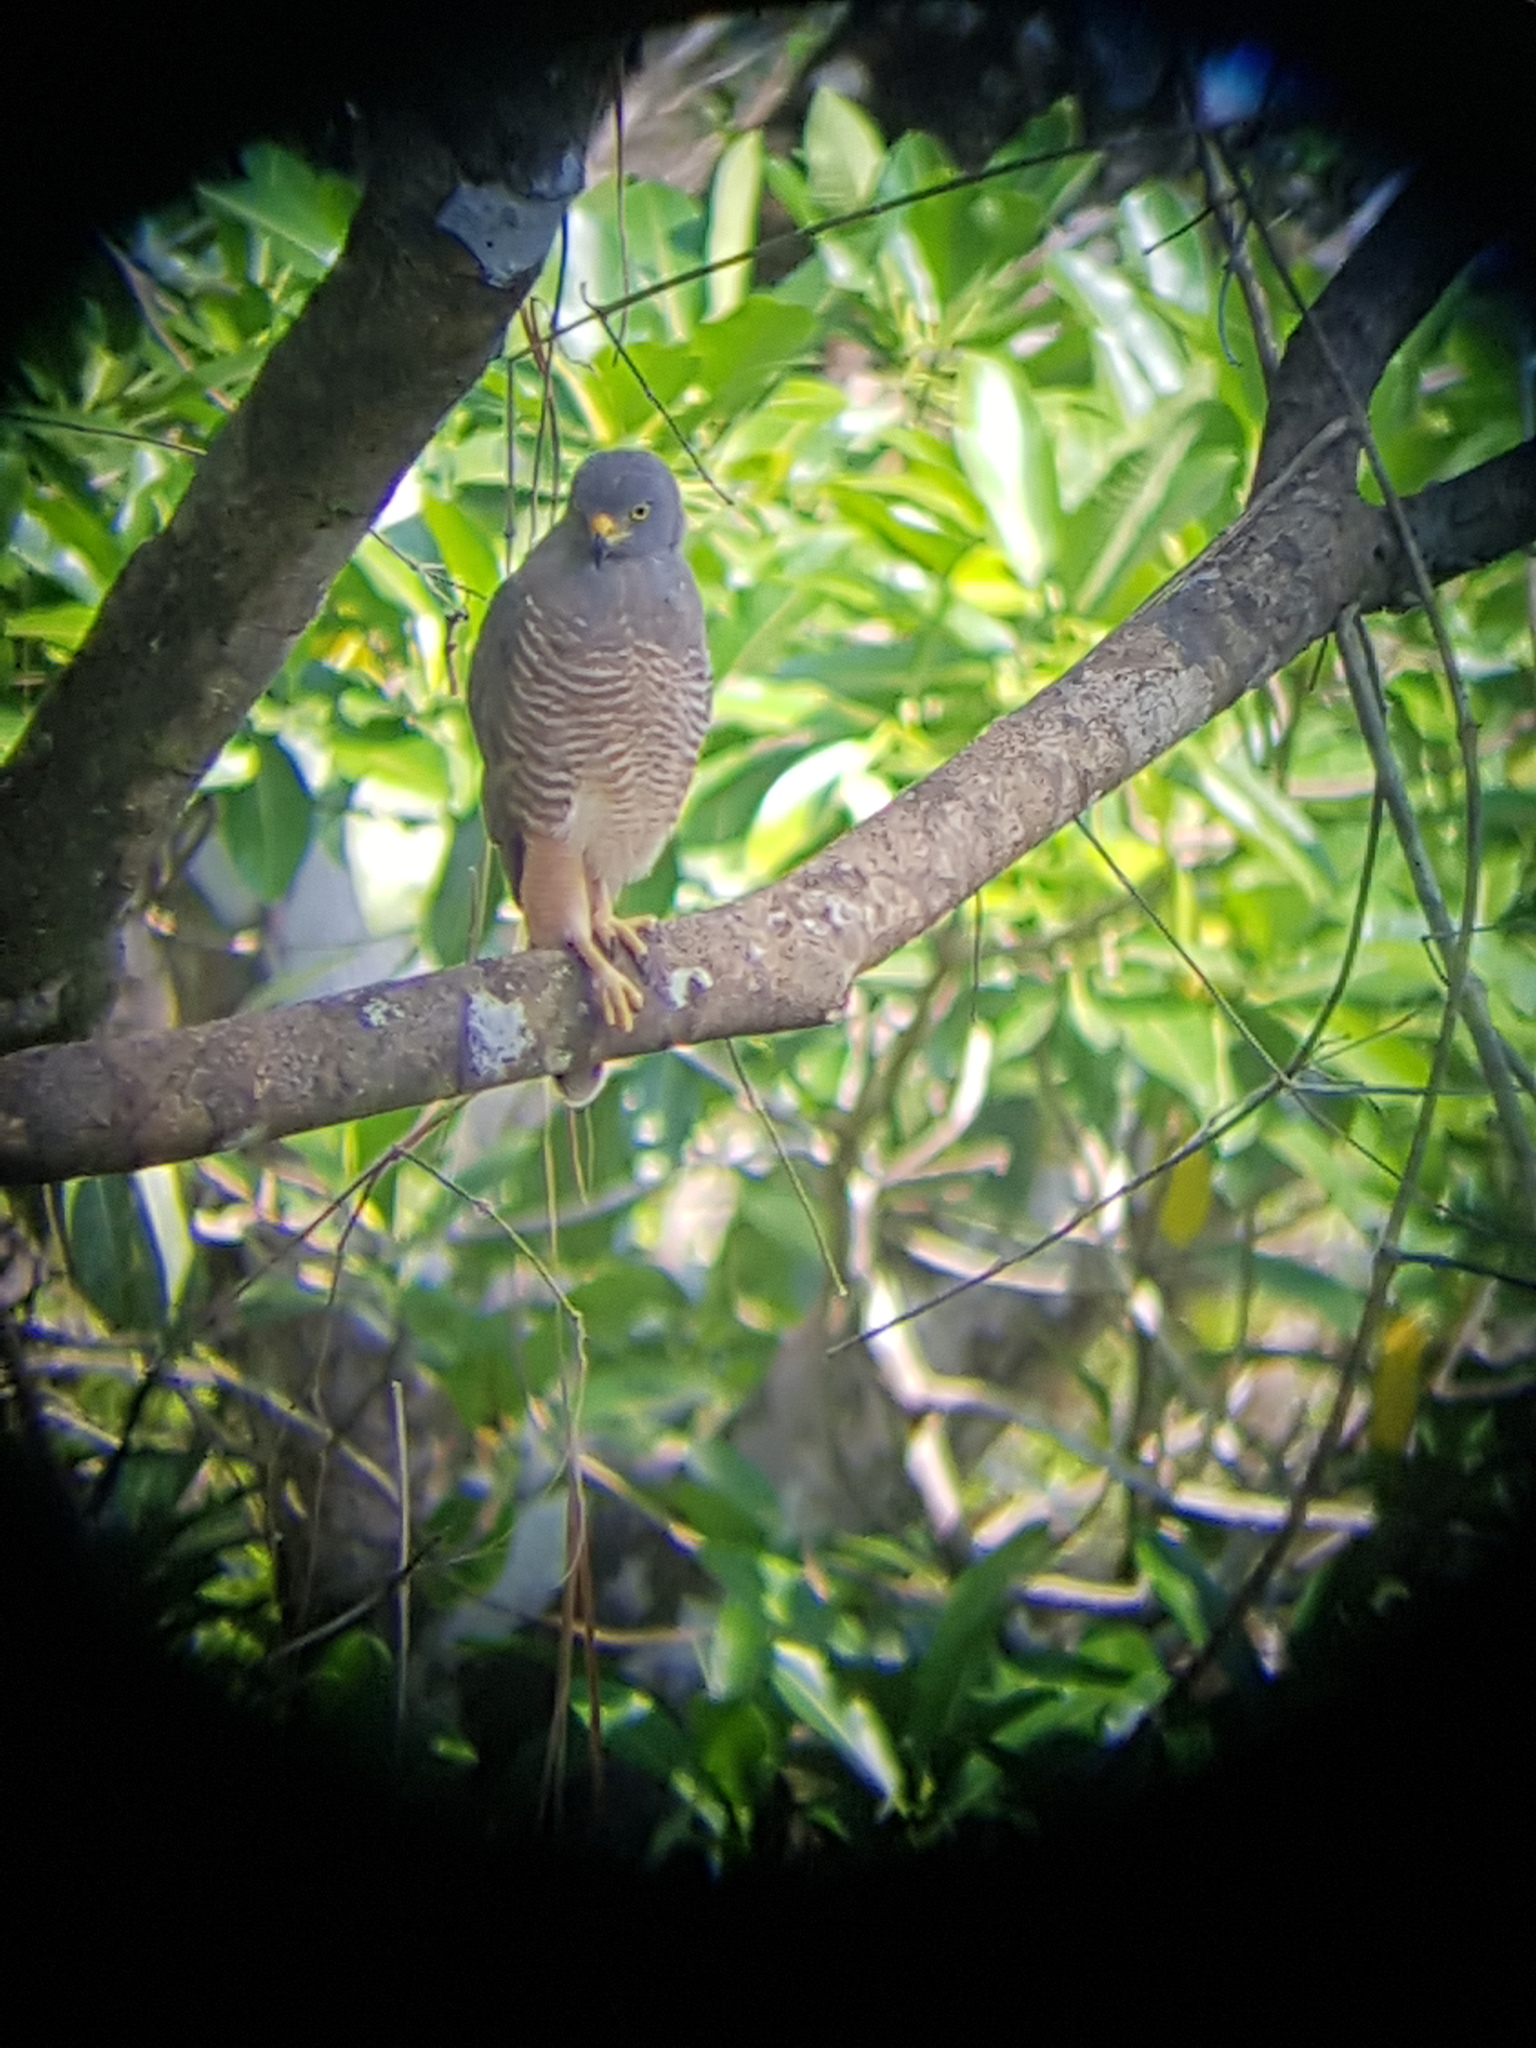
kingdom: Animalia
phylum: Chordata
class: Aves
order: Accipitriformes
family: Accipitridae
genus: Rupornis
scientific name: Rupornis magnirostris
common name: Roadside hawk
